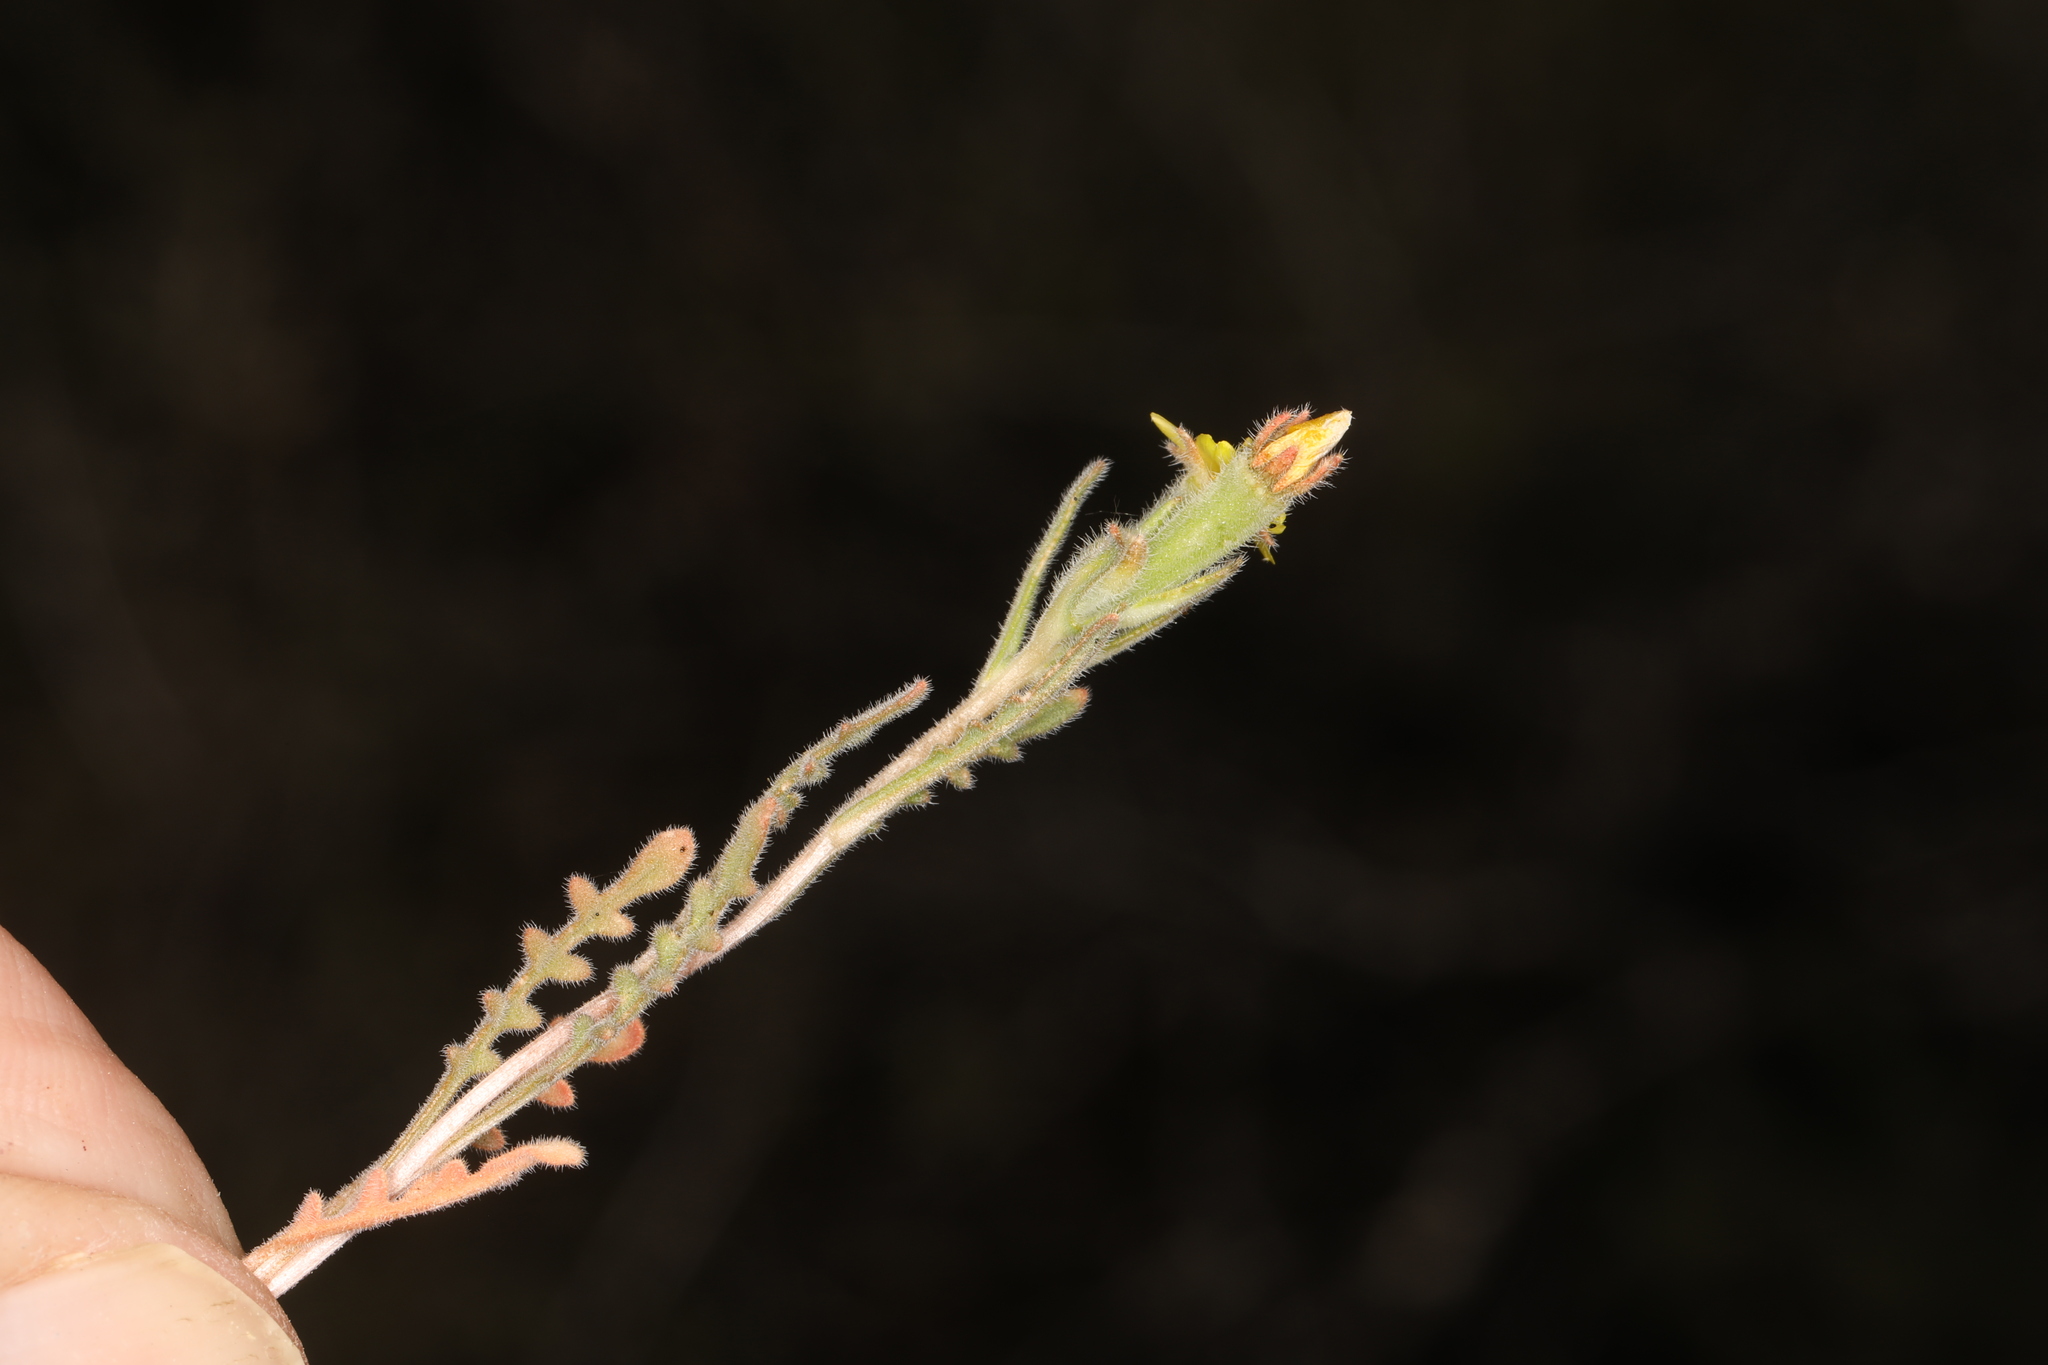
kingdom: Plantae
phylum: Tracheophyta
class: Magnoliopsida
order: Cornales
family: Loasaceae
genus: Mentzelia
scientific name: Mentzelia montana
